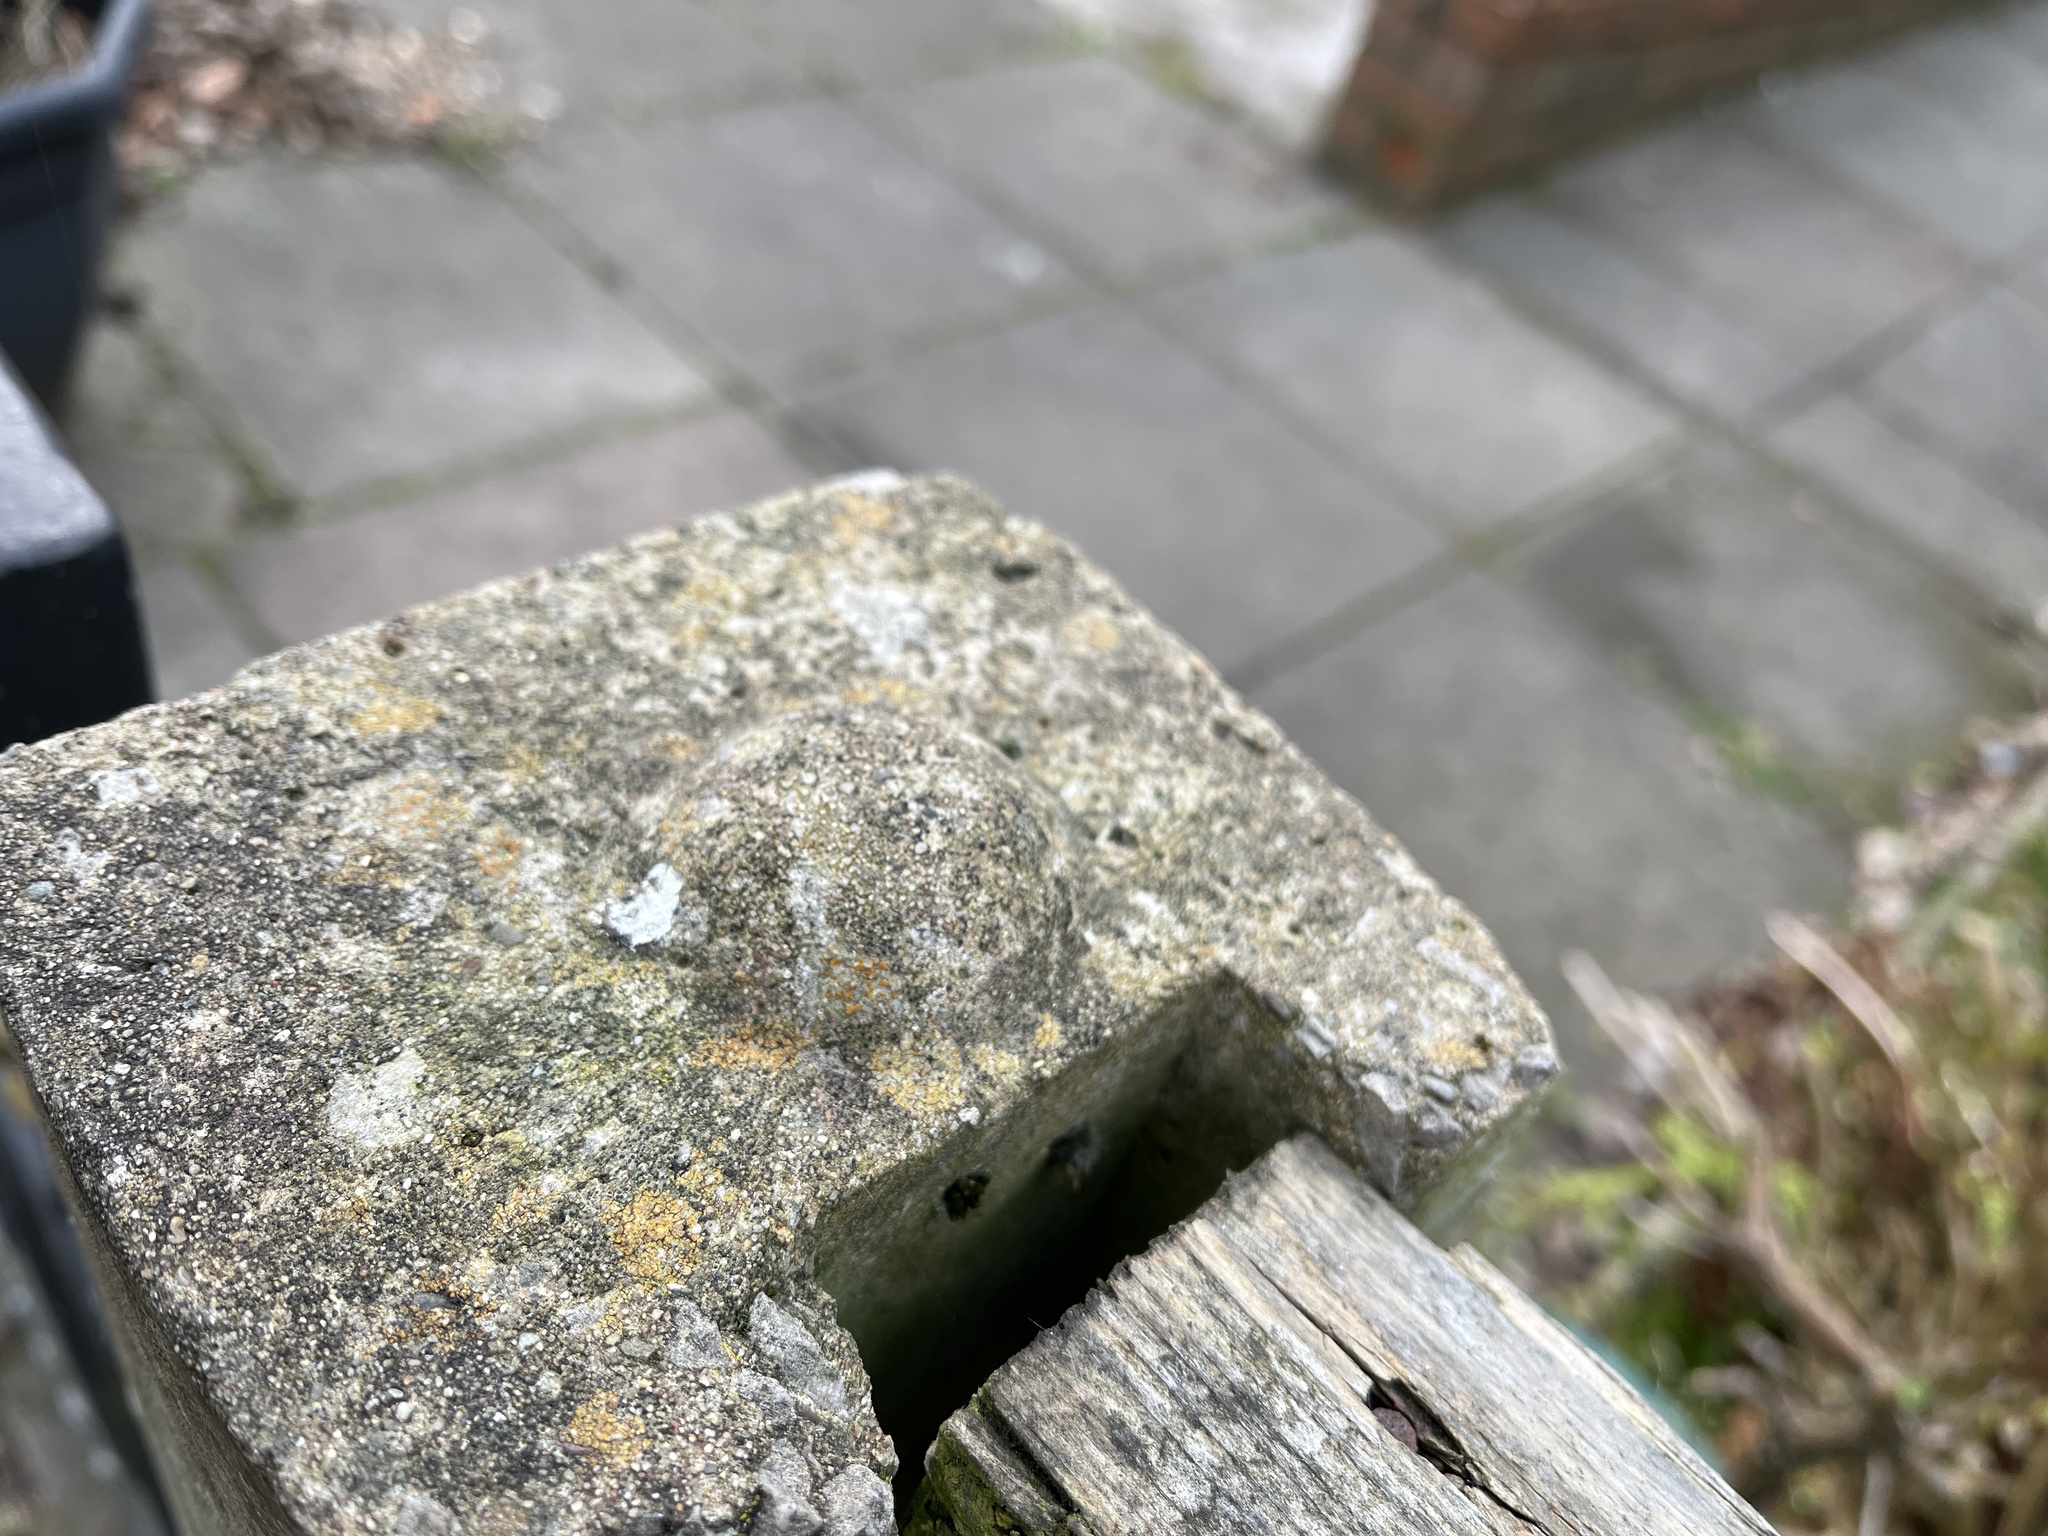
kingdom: Fungi
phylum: Ascomycota
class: Lecanoromycetes
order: Lecanorales
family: Psoraceae
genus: Protoblastenia
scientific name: Protoblastenia rupestris
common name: Chewing gum lichen
